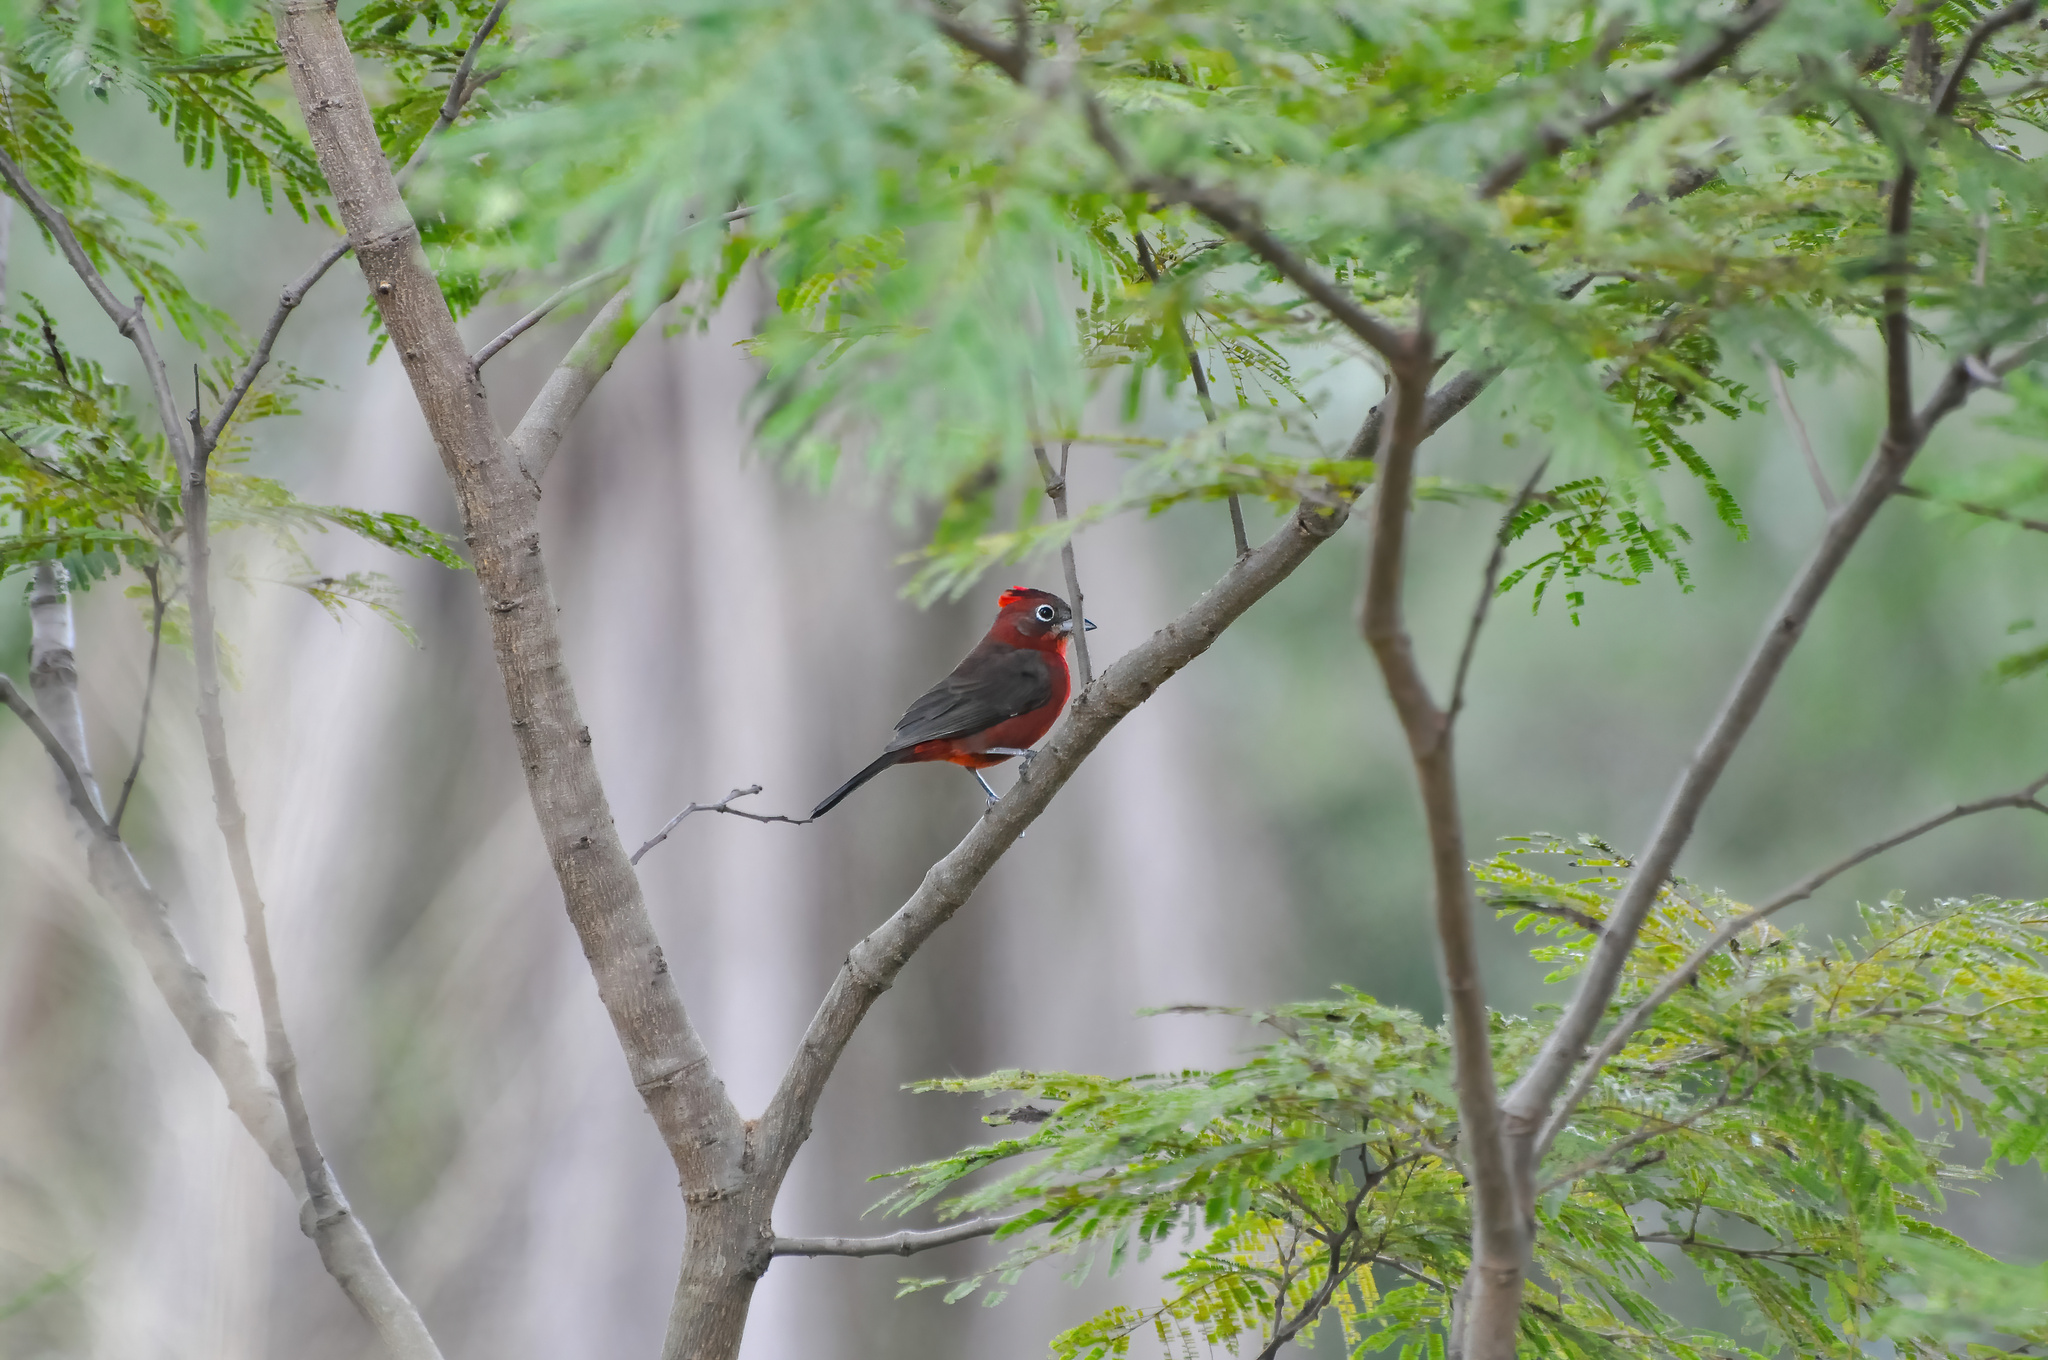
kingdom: Animalia
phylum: Chordata
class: Aves
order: Passeriformes
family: Thraupidae
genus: Coryphospingus
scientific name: Coryphospingus cucullatus
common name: Red pileated finch
